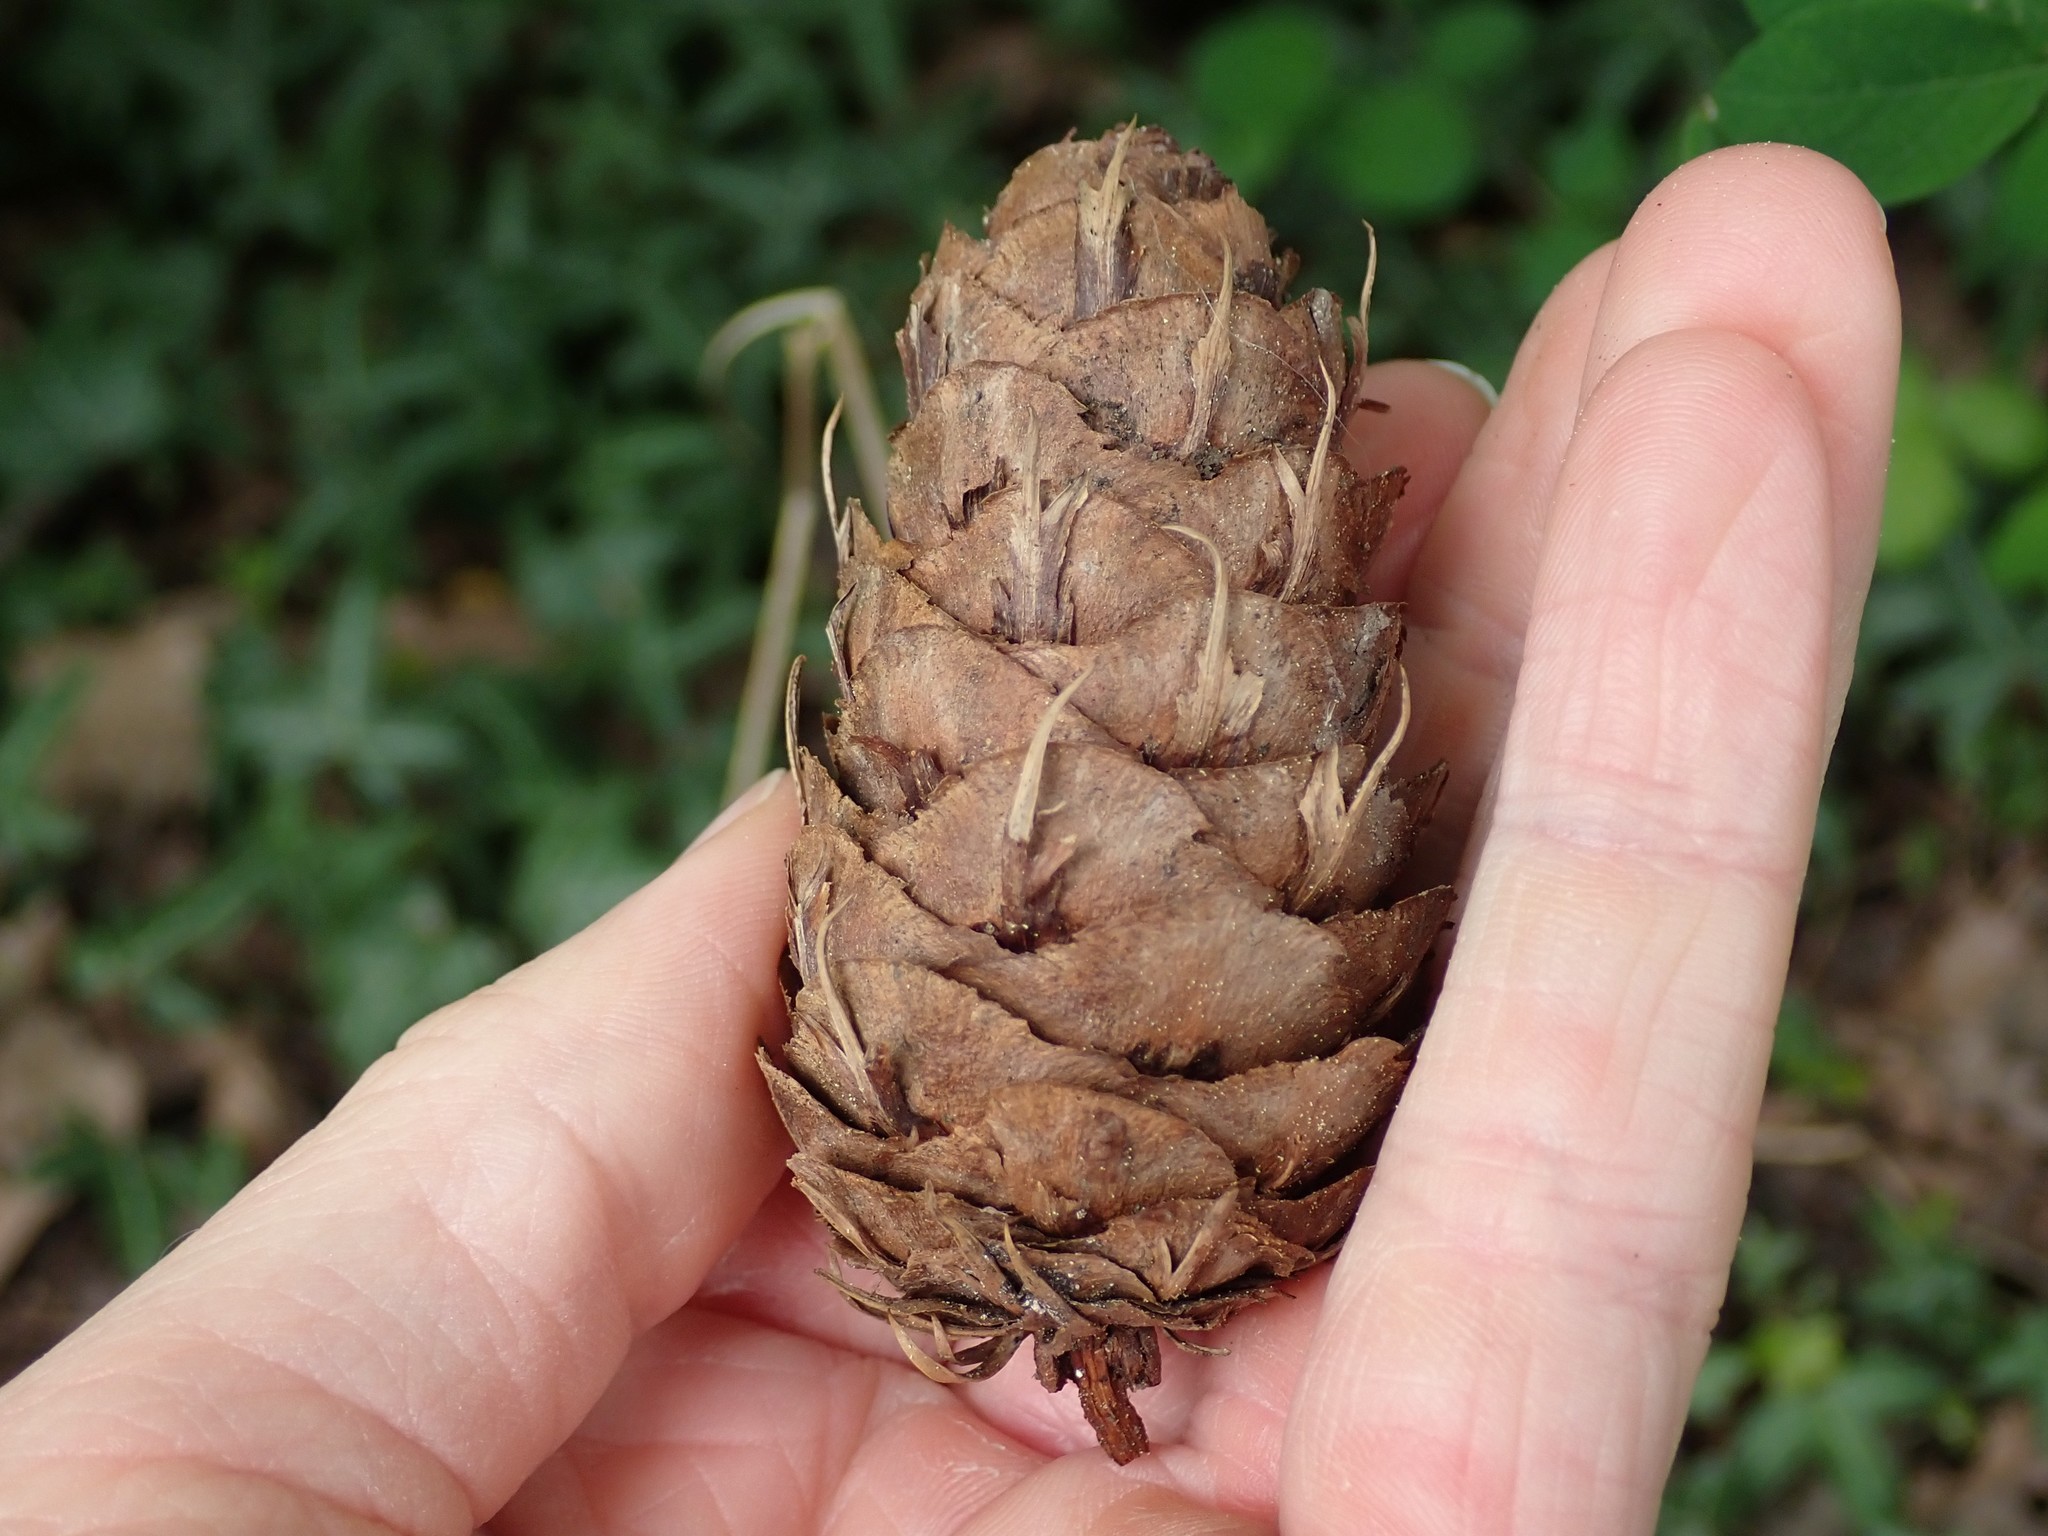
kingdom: Plantae
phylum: Tracheophyta
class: Pinopsida
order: Pinales
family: Pinaceae
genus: Pseudotsuga
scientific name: Pseudotsuga menziesii
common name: Douglas fir
